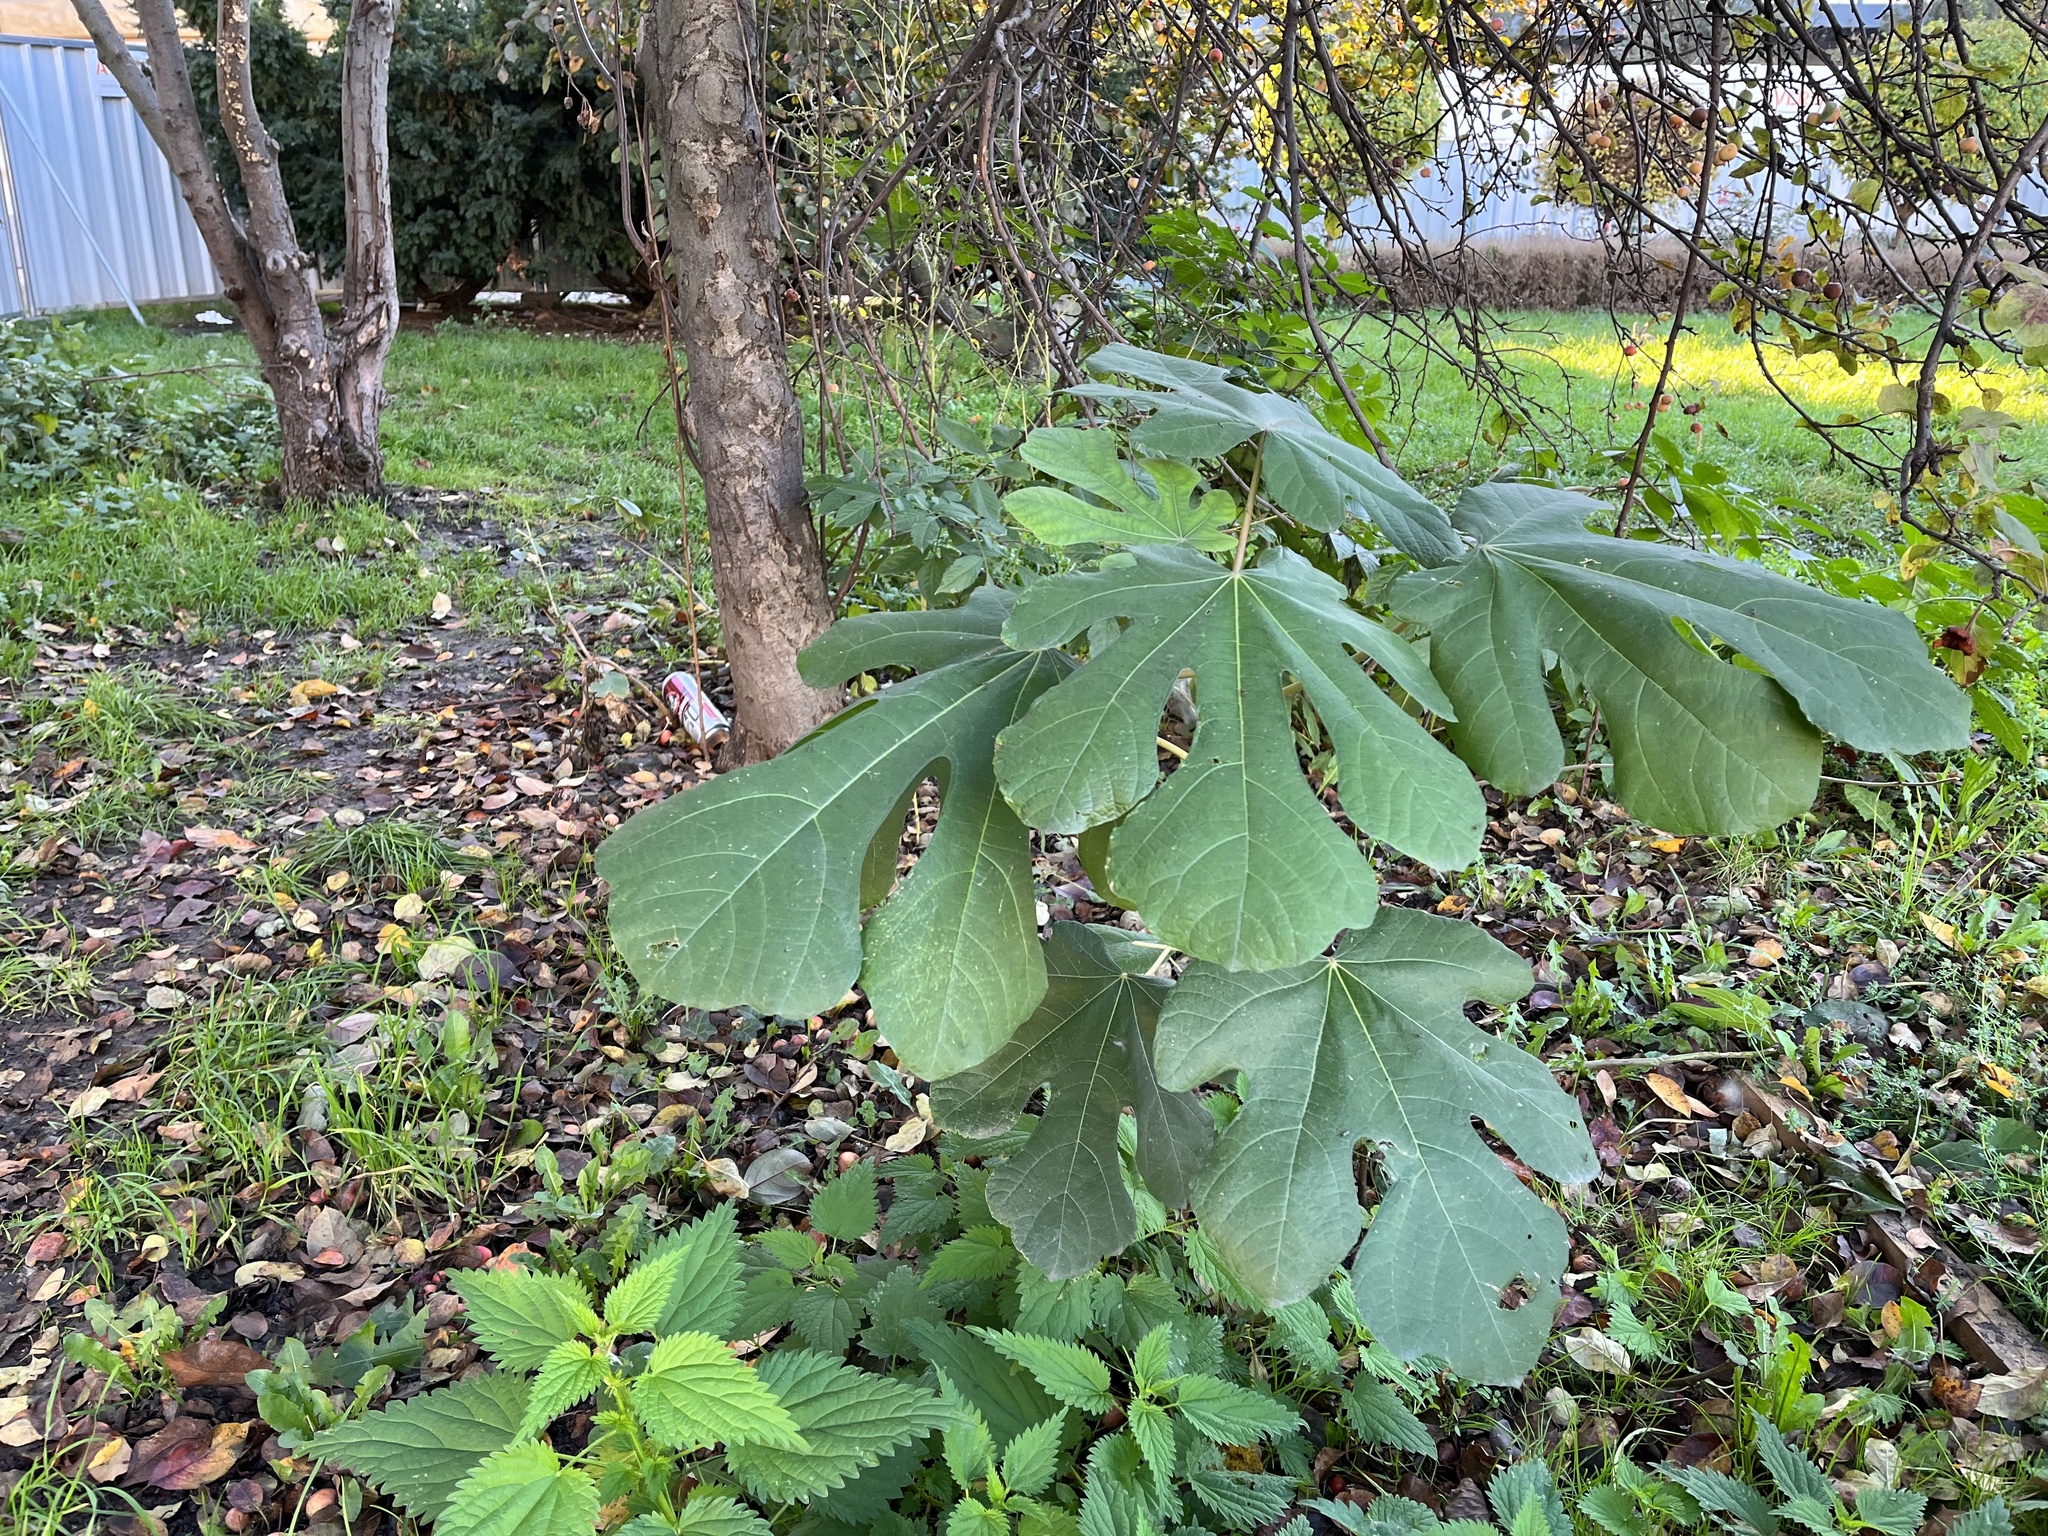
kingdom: Plantae
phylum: Tracheophyta
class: Magnoliopsida
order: Rosales
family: Moraceae
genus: Ficus
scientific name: Ficus carica
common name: Fig
